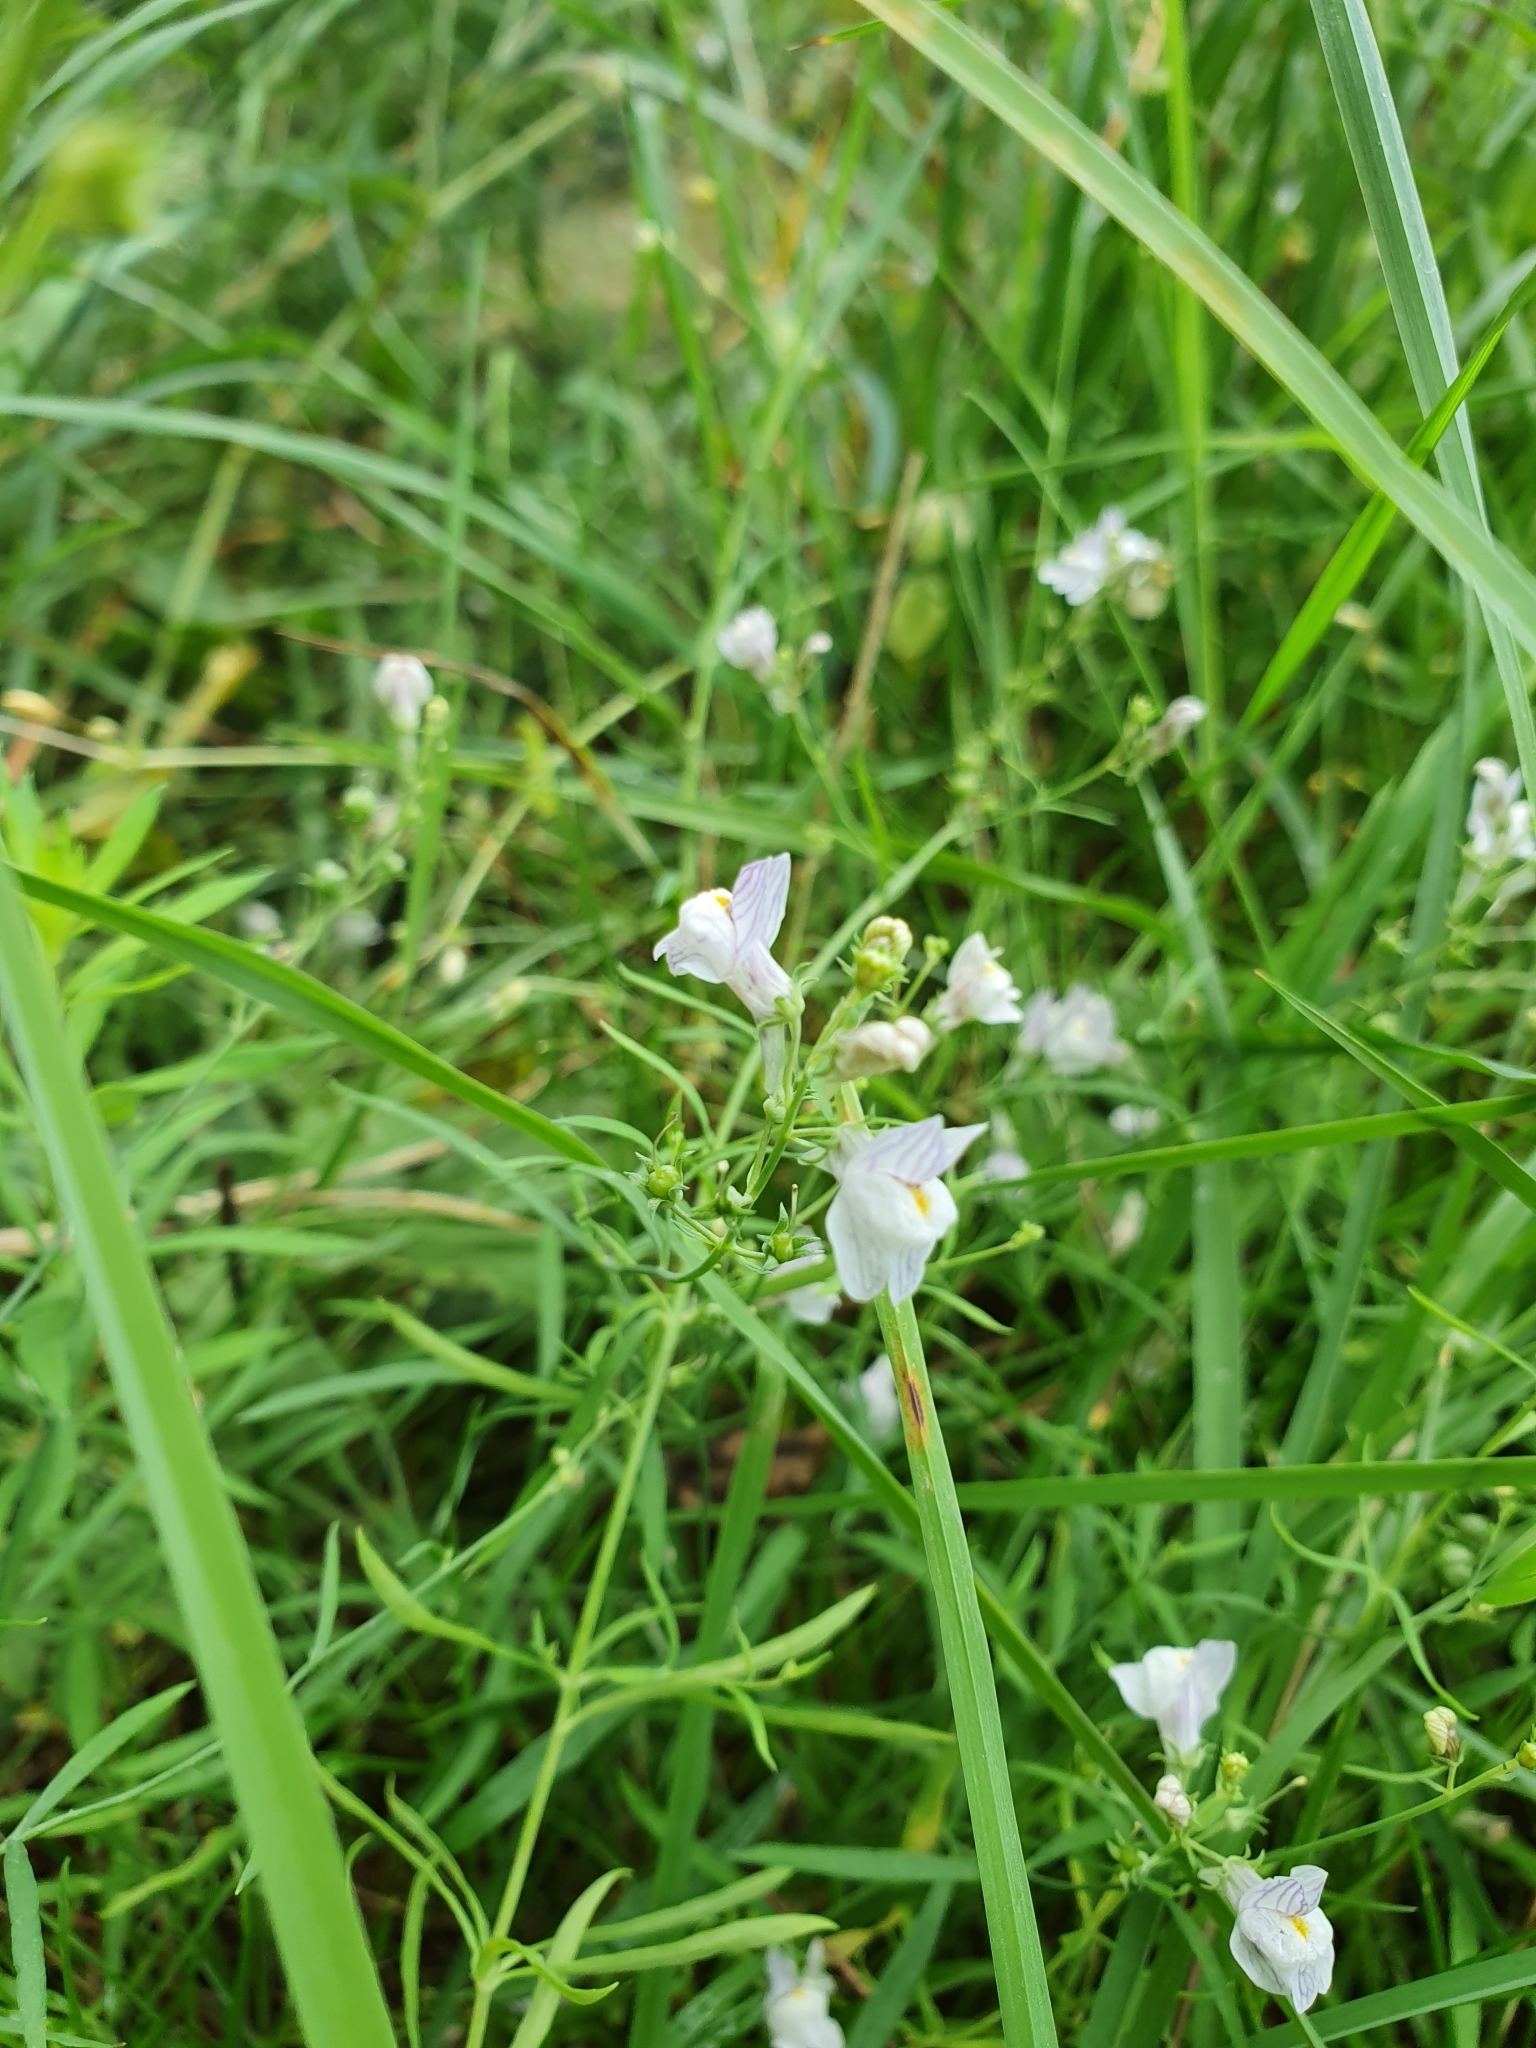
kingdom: Plantae
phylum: Tracheophyta
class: Magnoliopsida
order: Lamiales
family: Plantaginaceae
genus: Linaria
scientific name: Linaria repens
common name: Pale toadflax
